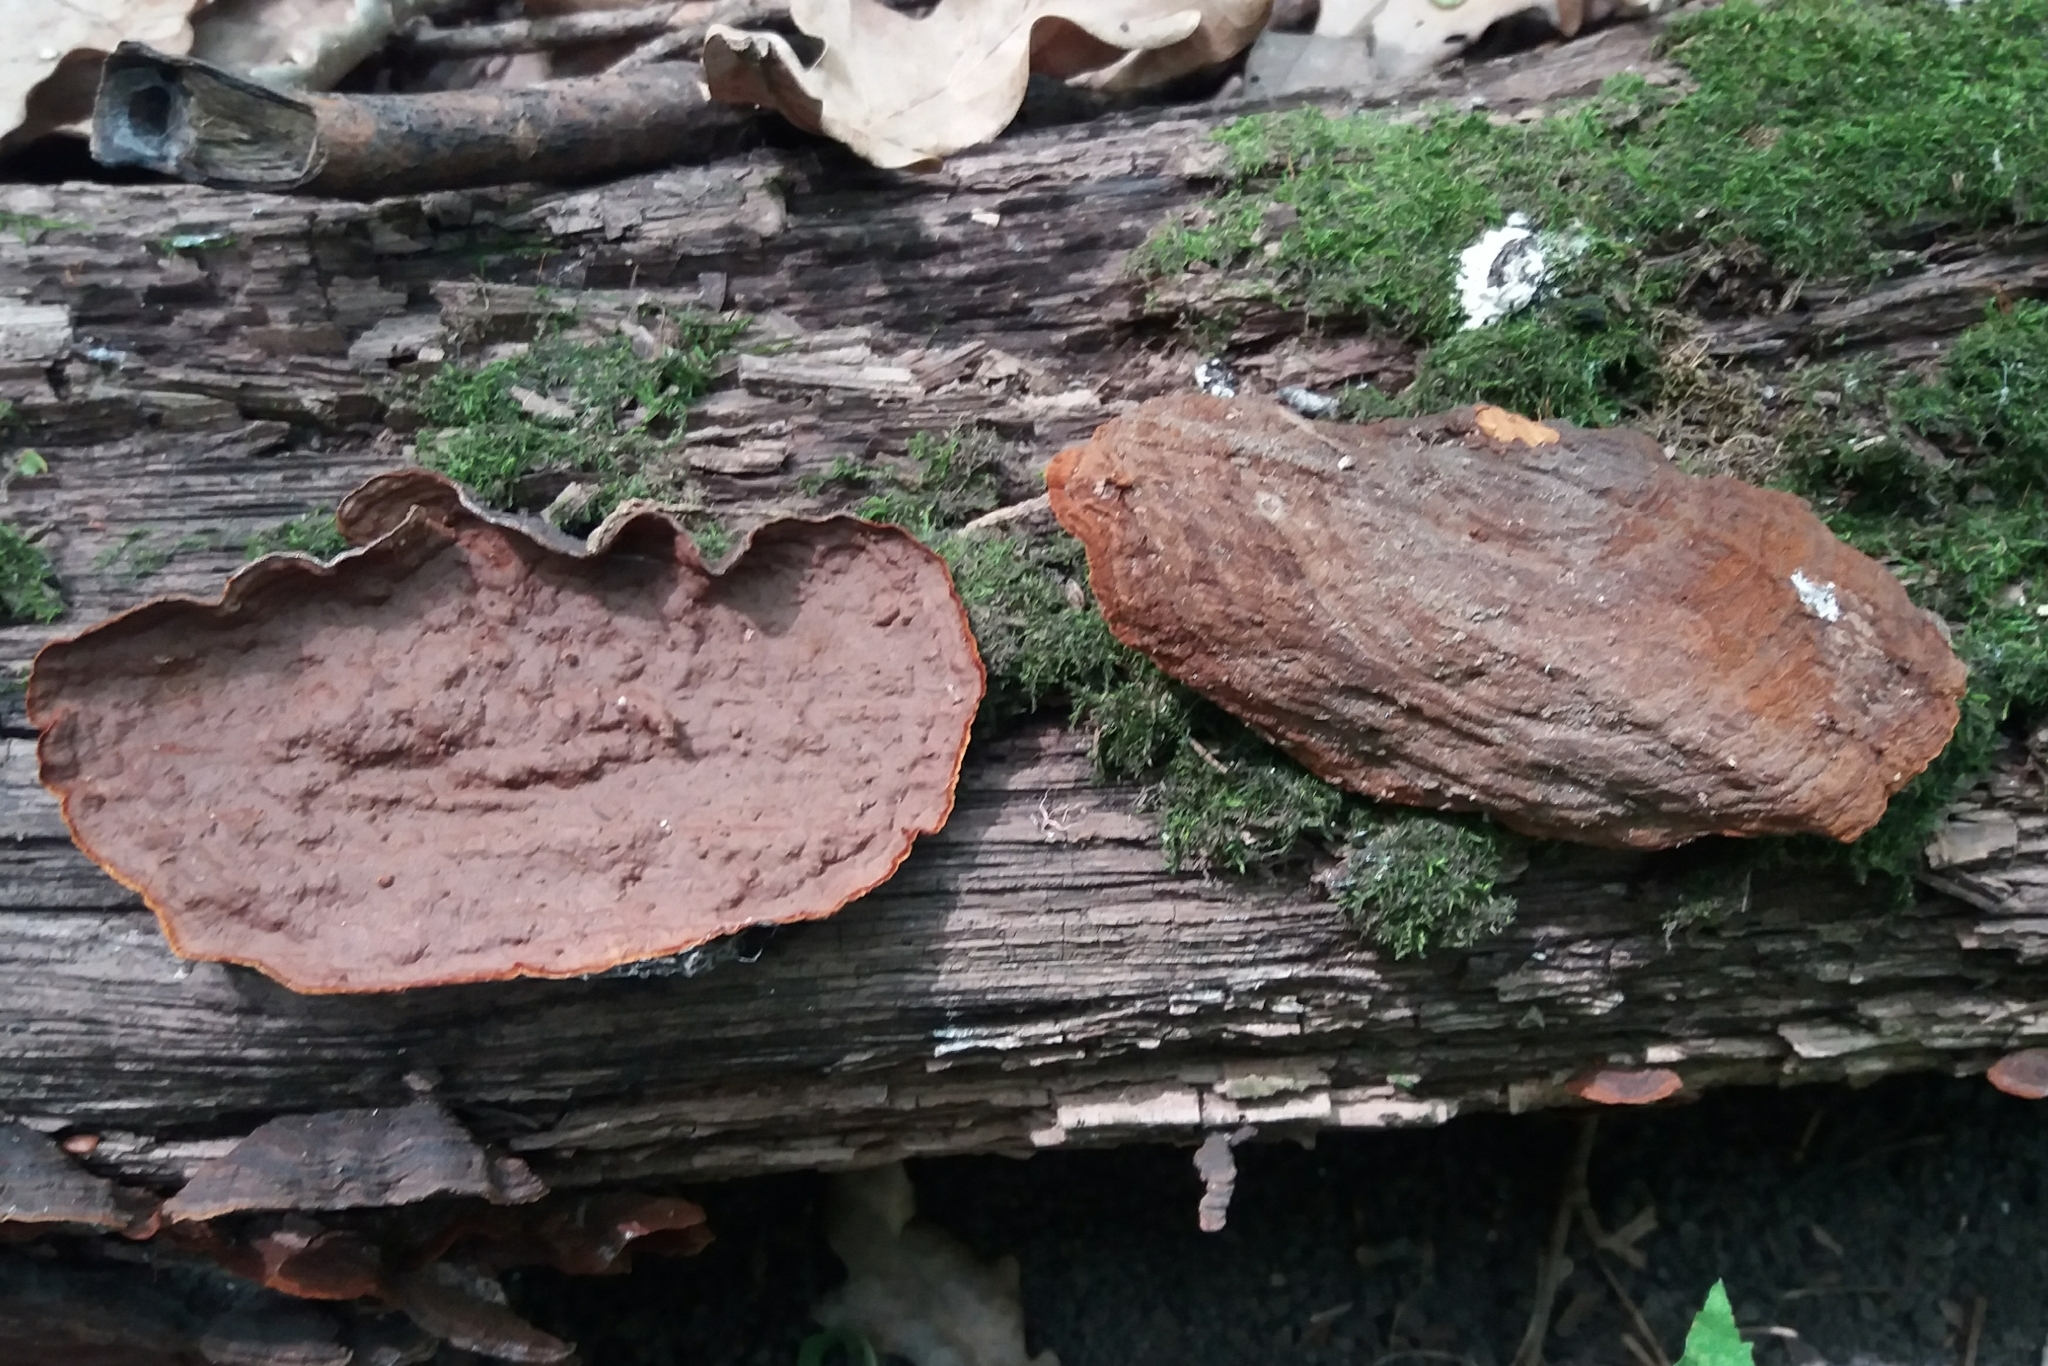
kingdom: Fungi
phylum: Basidiomycota
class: Agaricomycetes
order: Hymenochaetales
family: Hymenochaetaceae
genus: Hymenochaete
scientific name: Hymenochaete rubiginosa
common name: Oak curtain crust
